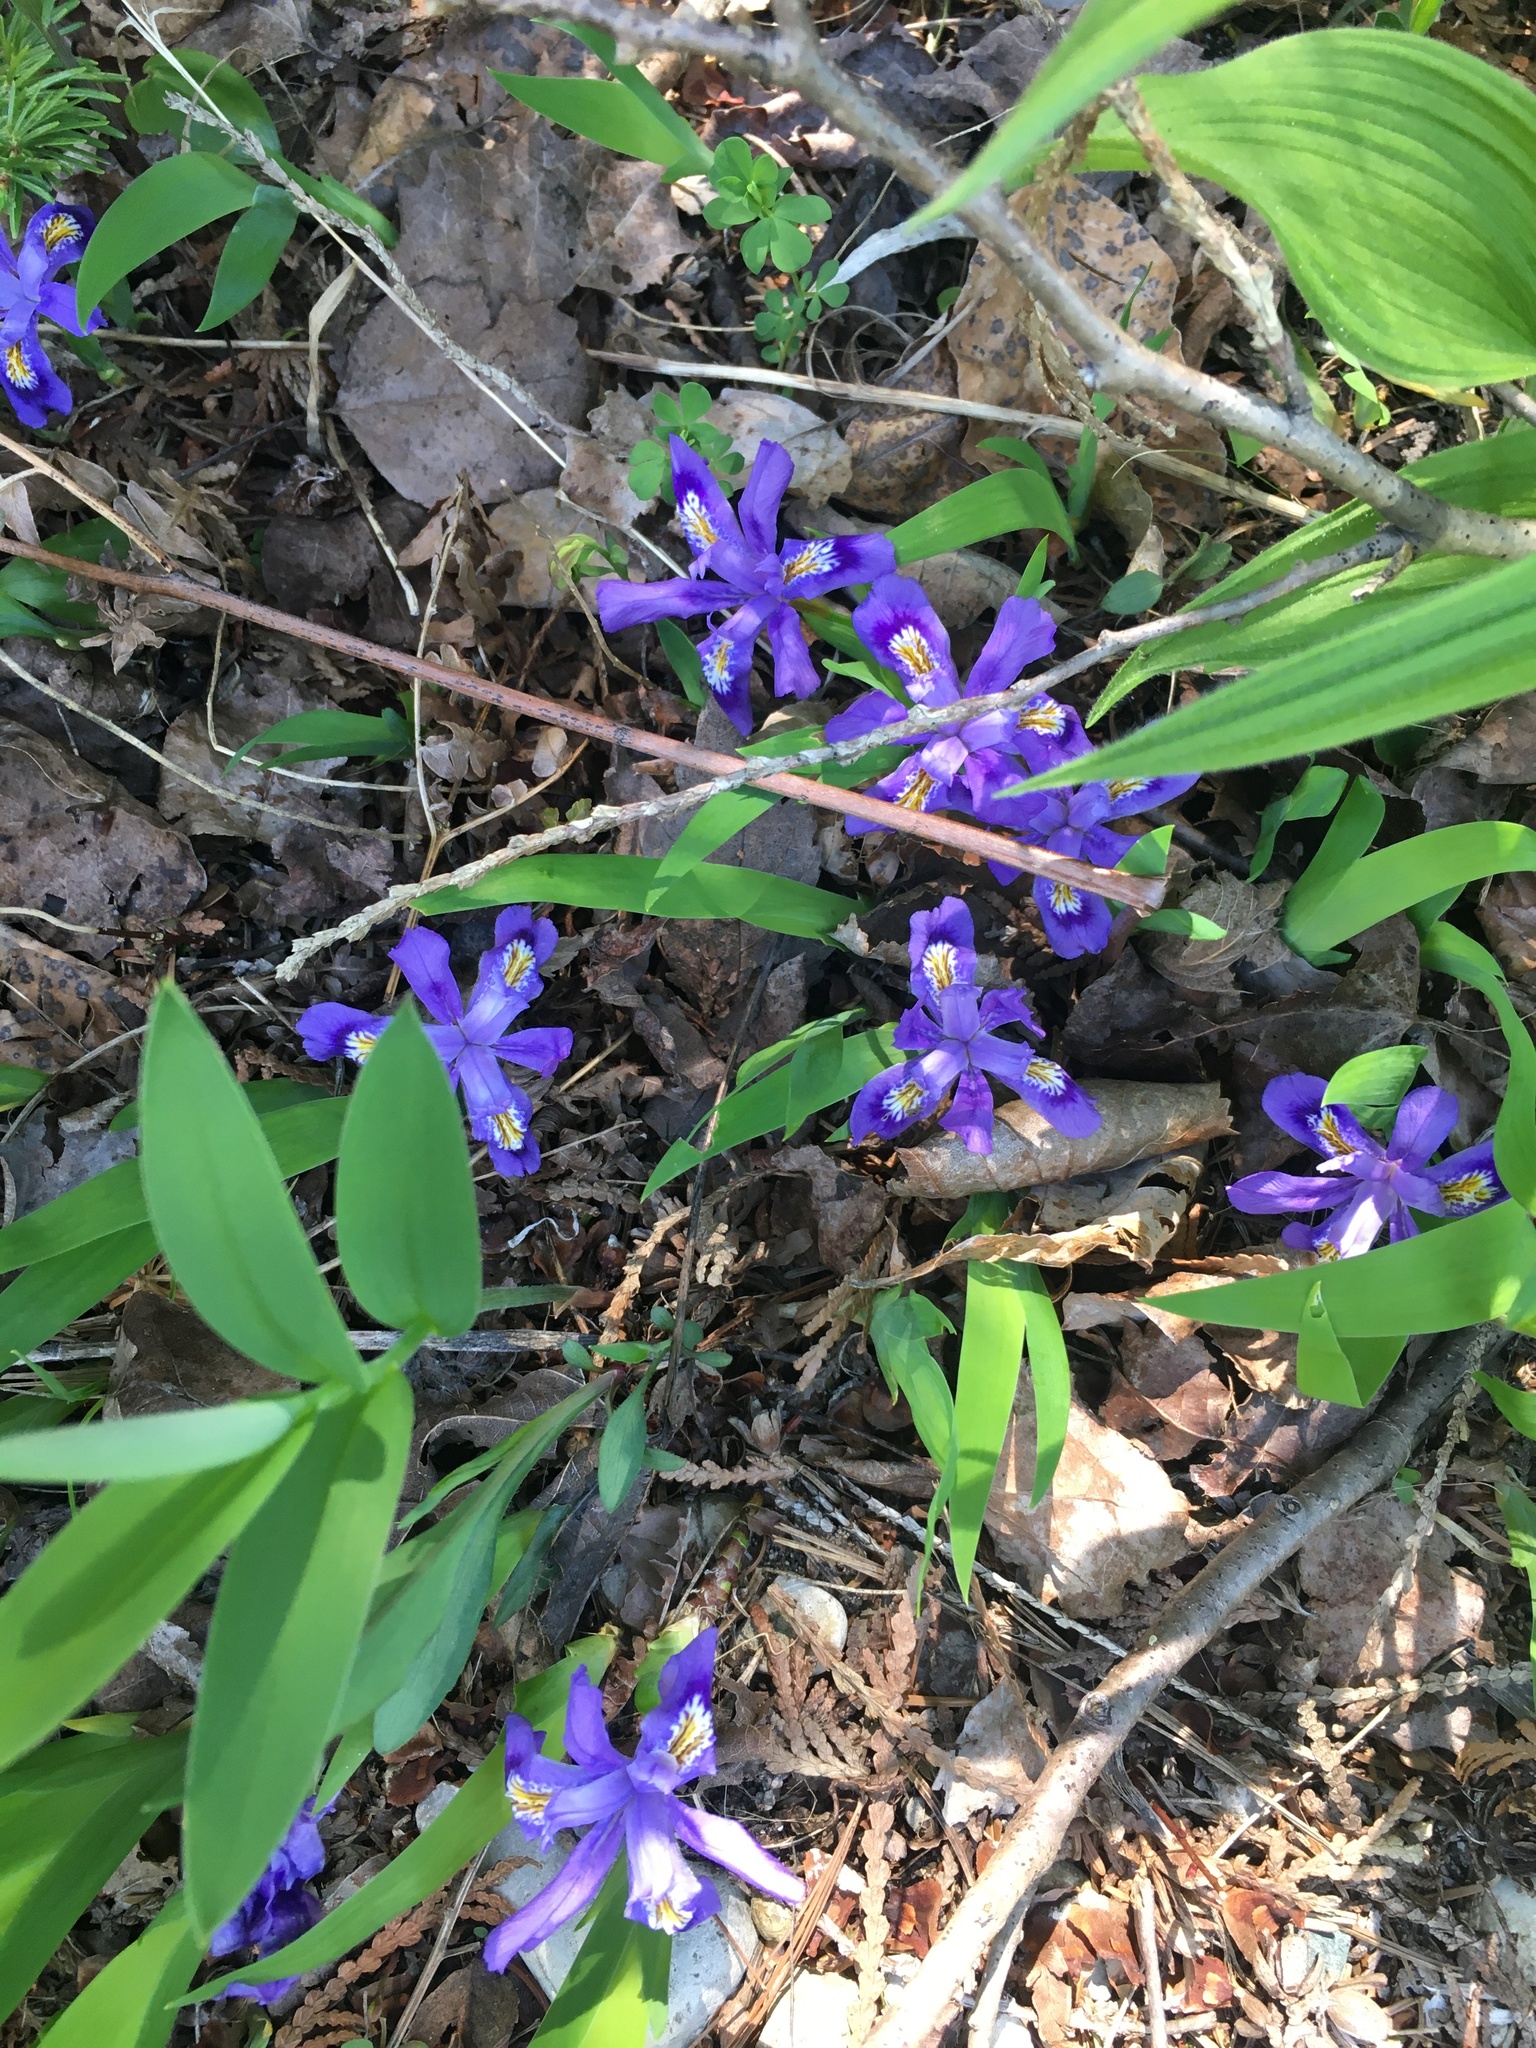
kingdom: Plantae
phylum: Tracheophyta
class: Liliopsida
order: Asparagales
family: Iridaceae
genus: Iris
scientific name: Iris lacustris
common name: Dwarf lake iris
